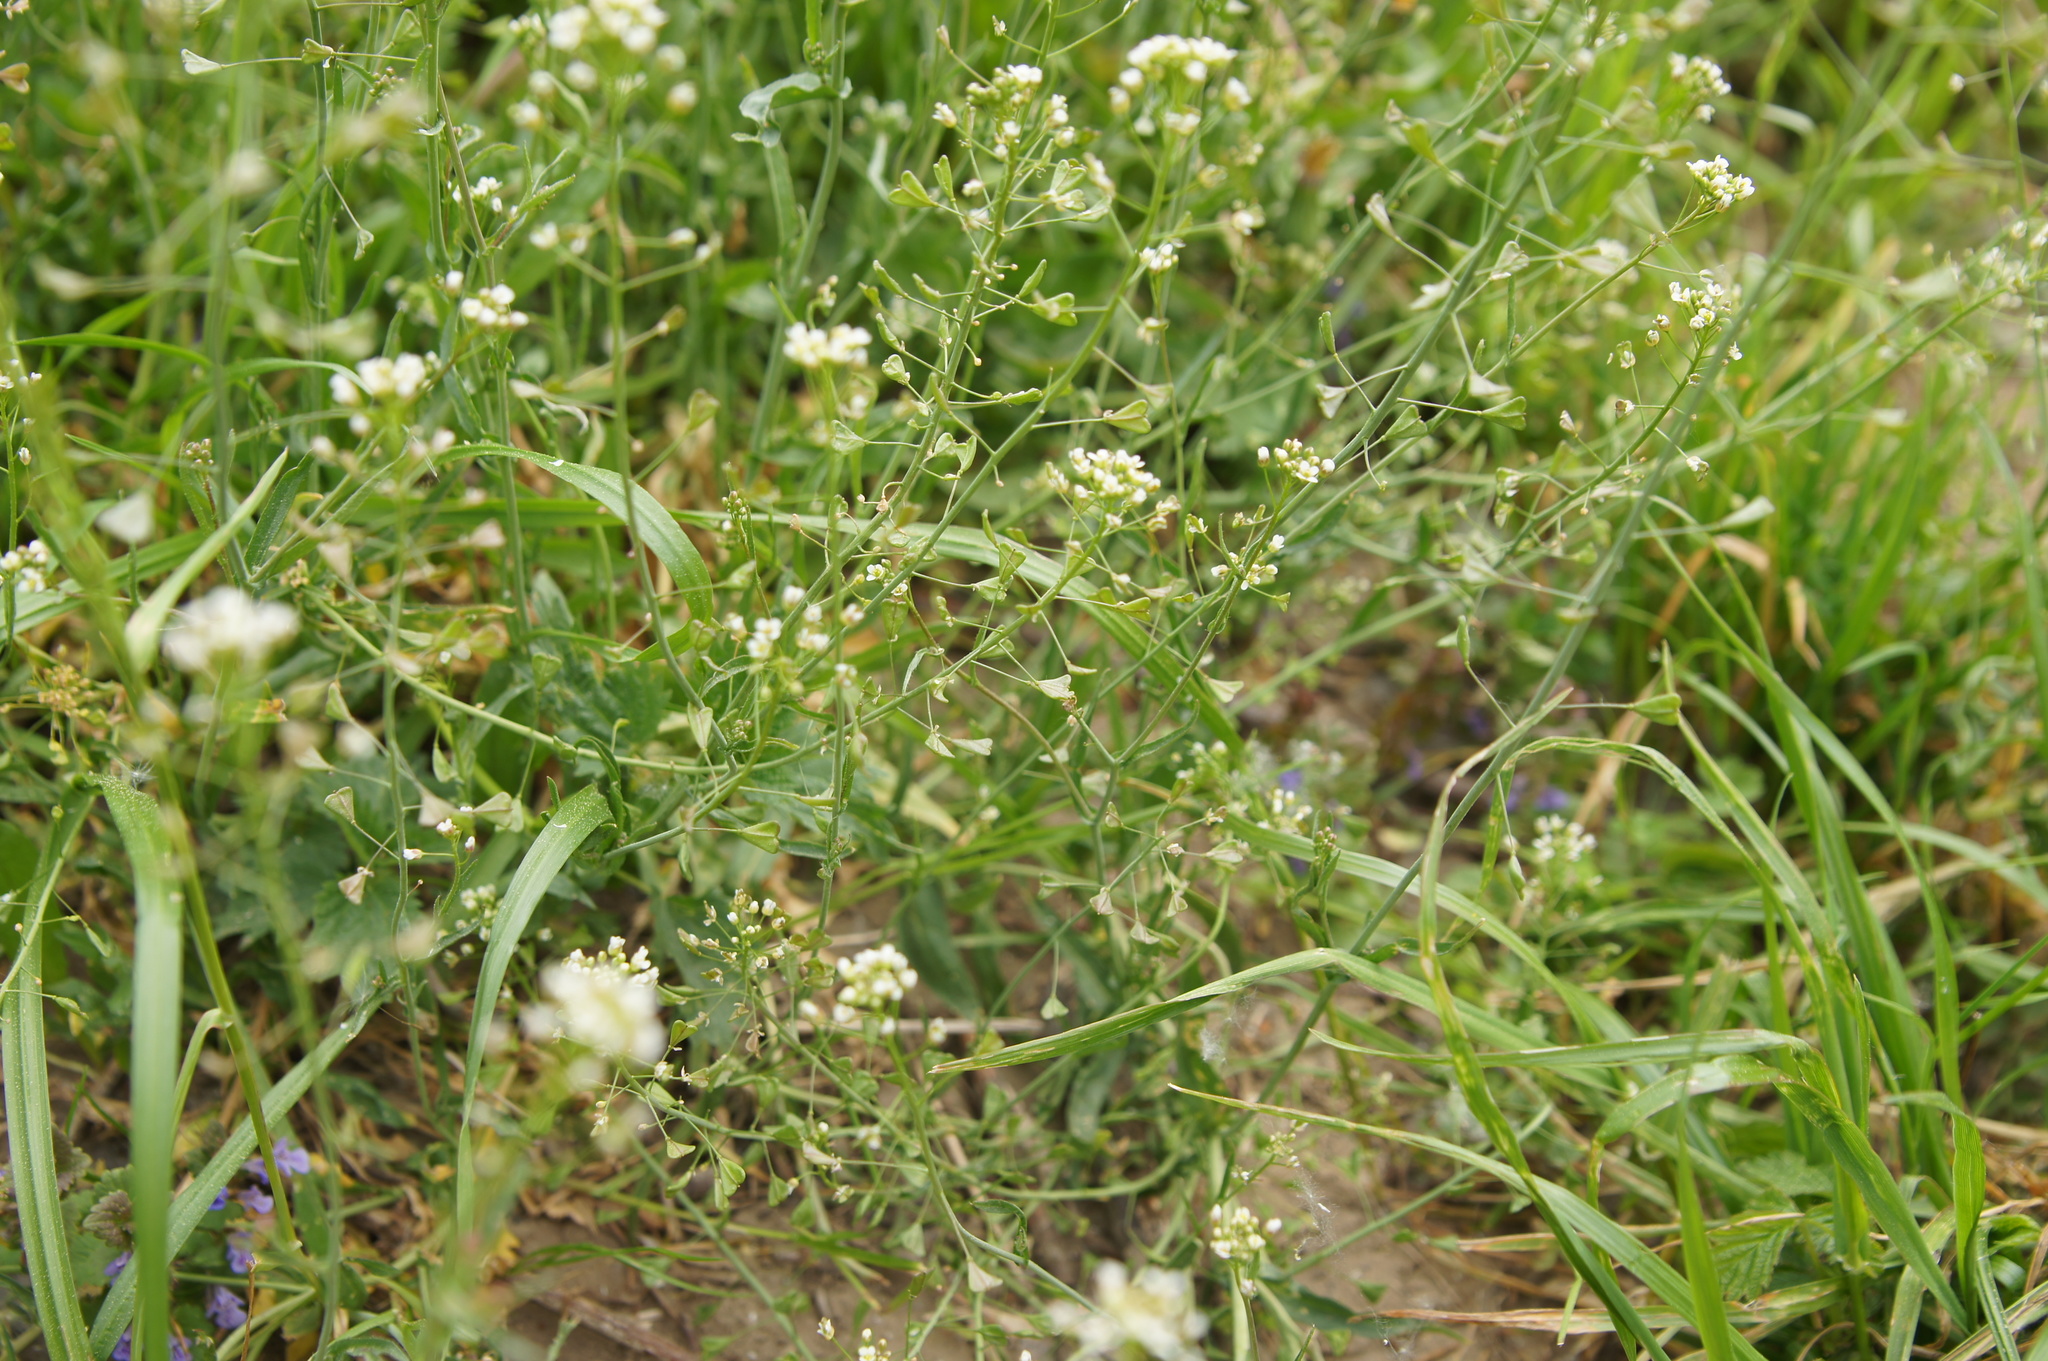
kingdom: Plantae
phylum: Tracheophyta
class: Magnoliopsida
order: Brassicales
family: Brassicaceae
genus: Capsella
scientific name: Capsella bursa-pastoris
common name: Shepherd's purse
